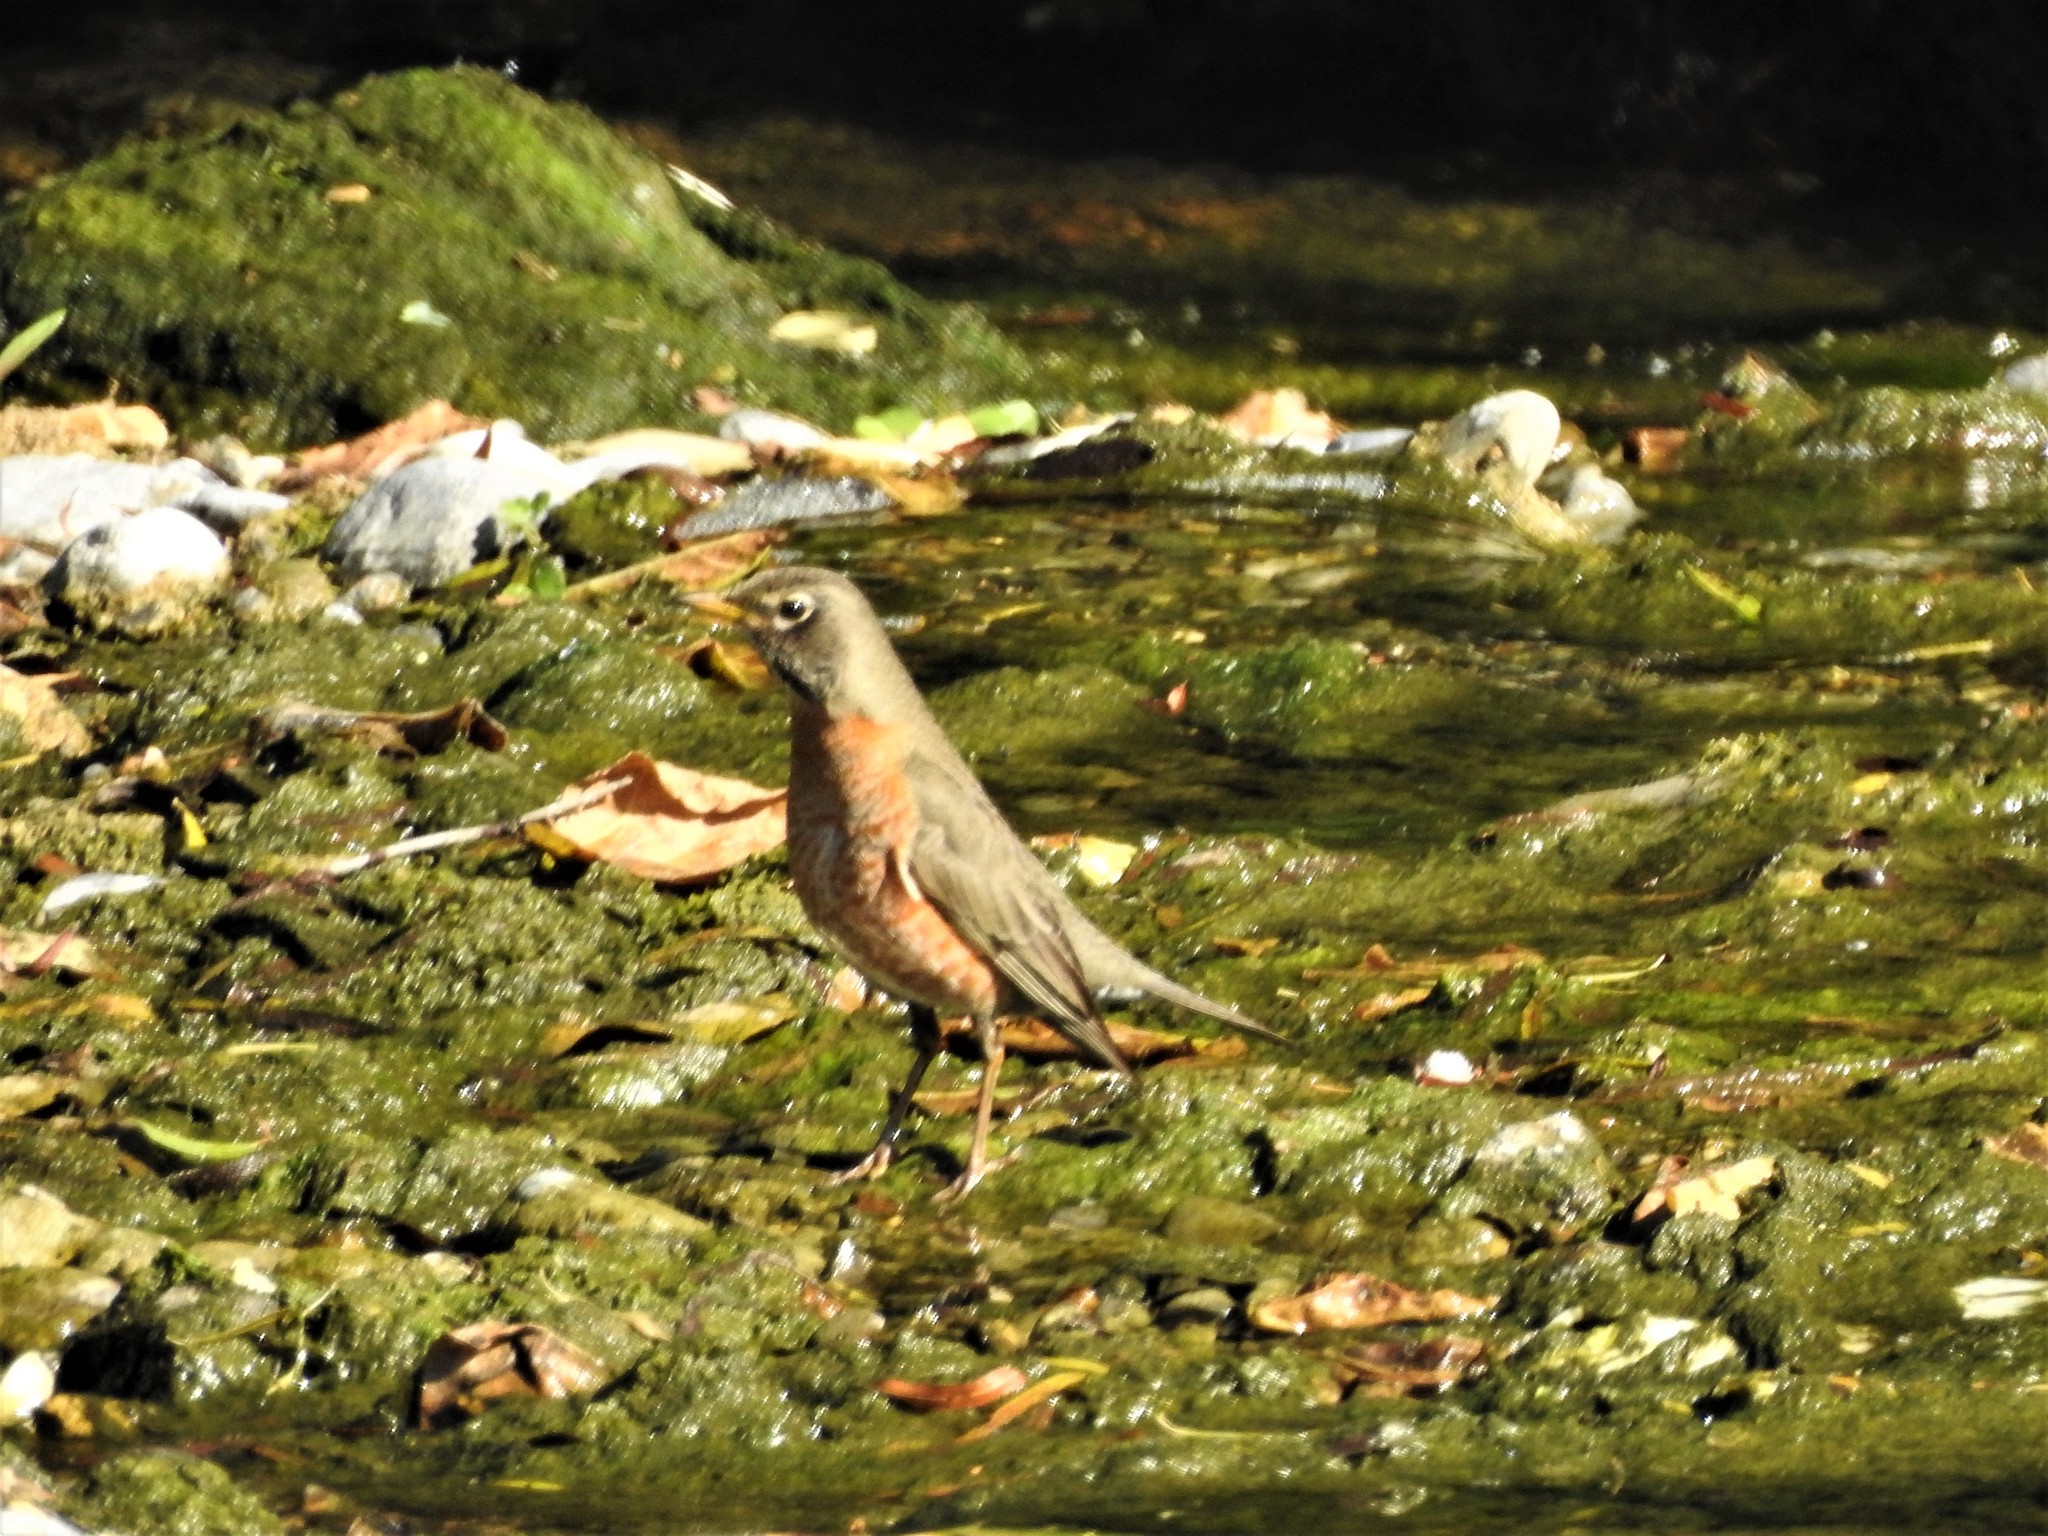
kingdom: Animalia
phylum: Chordata
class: Aves
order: Passeriformes
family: Turdidae
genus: Turdus
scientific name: Turdus migratorius
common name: American robin
